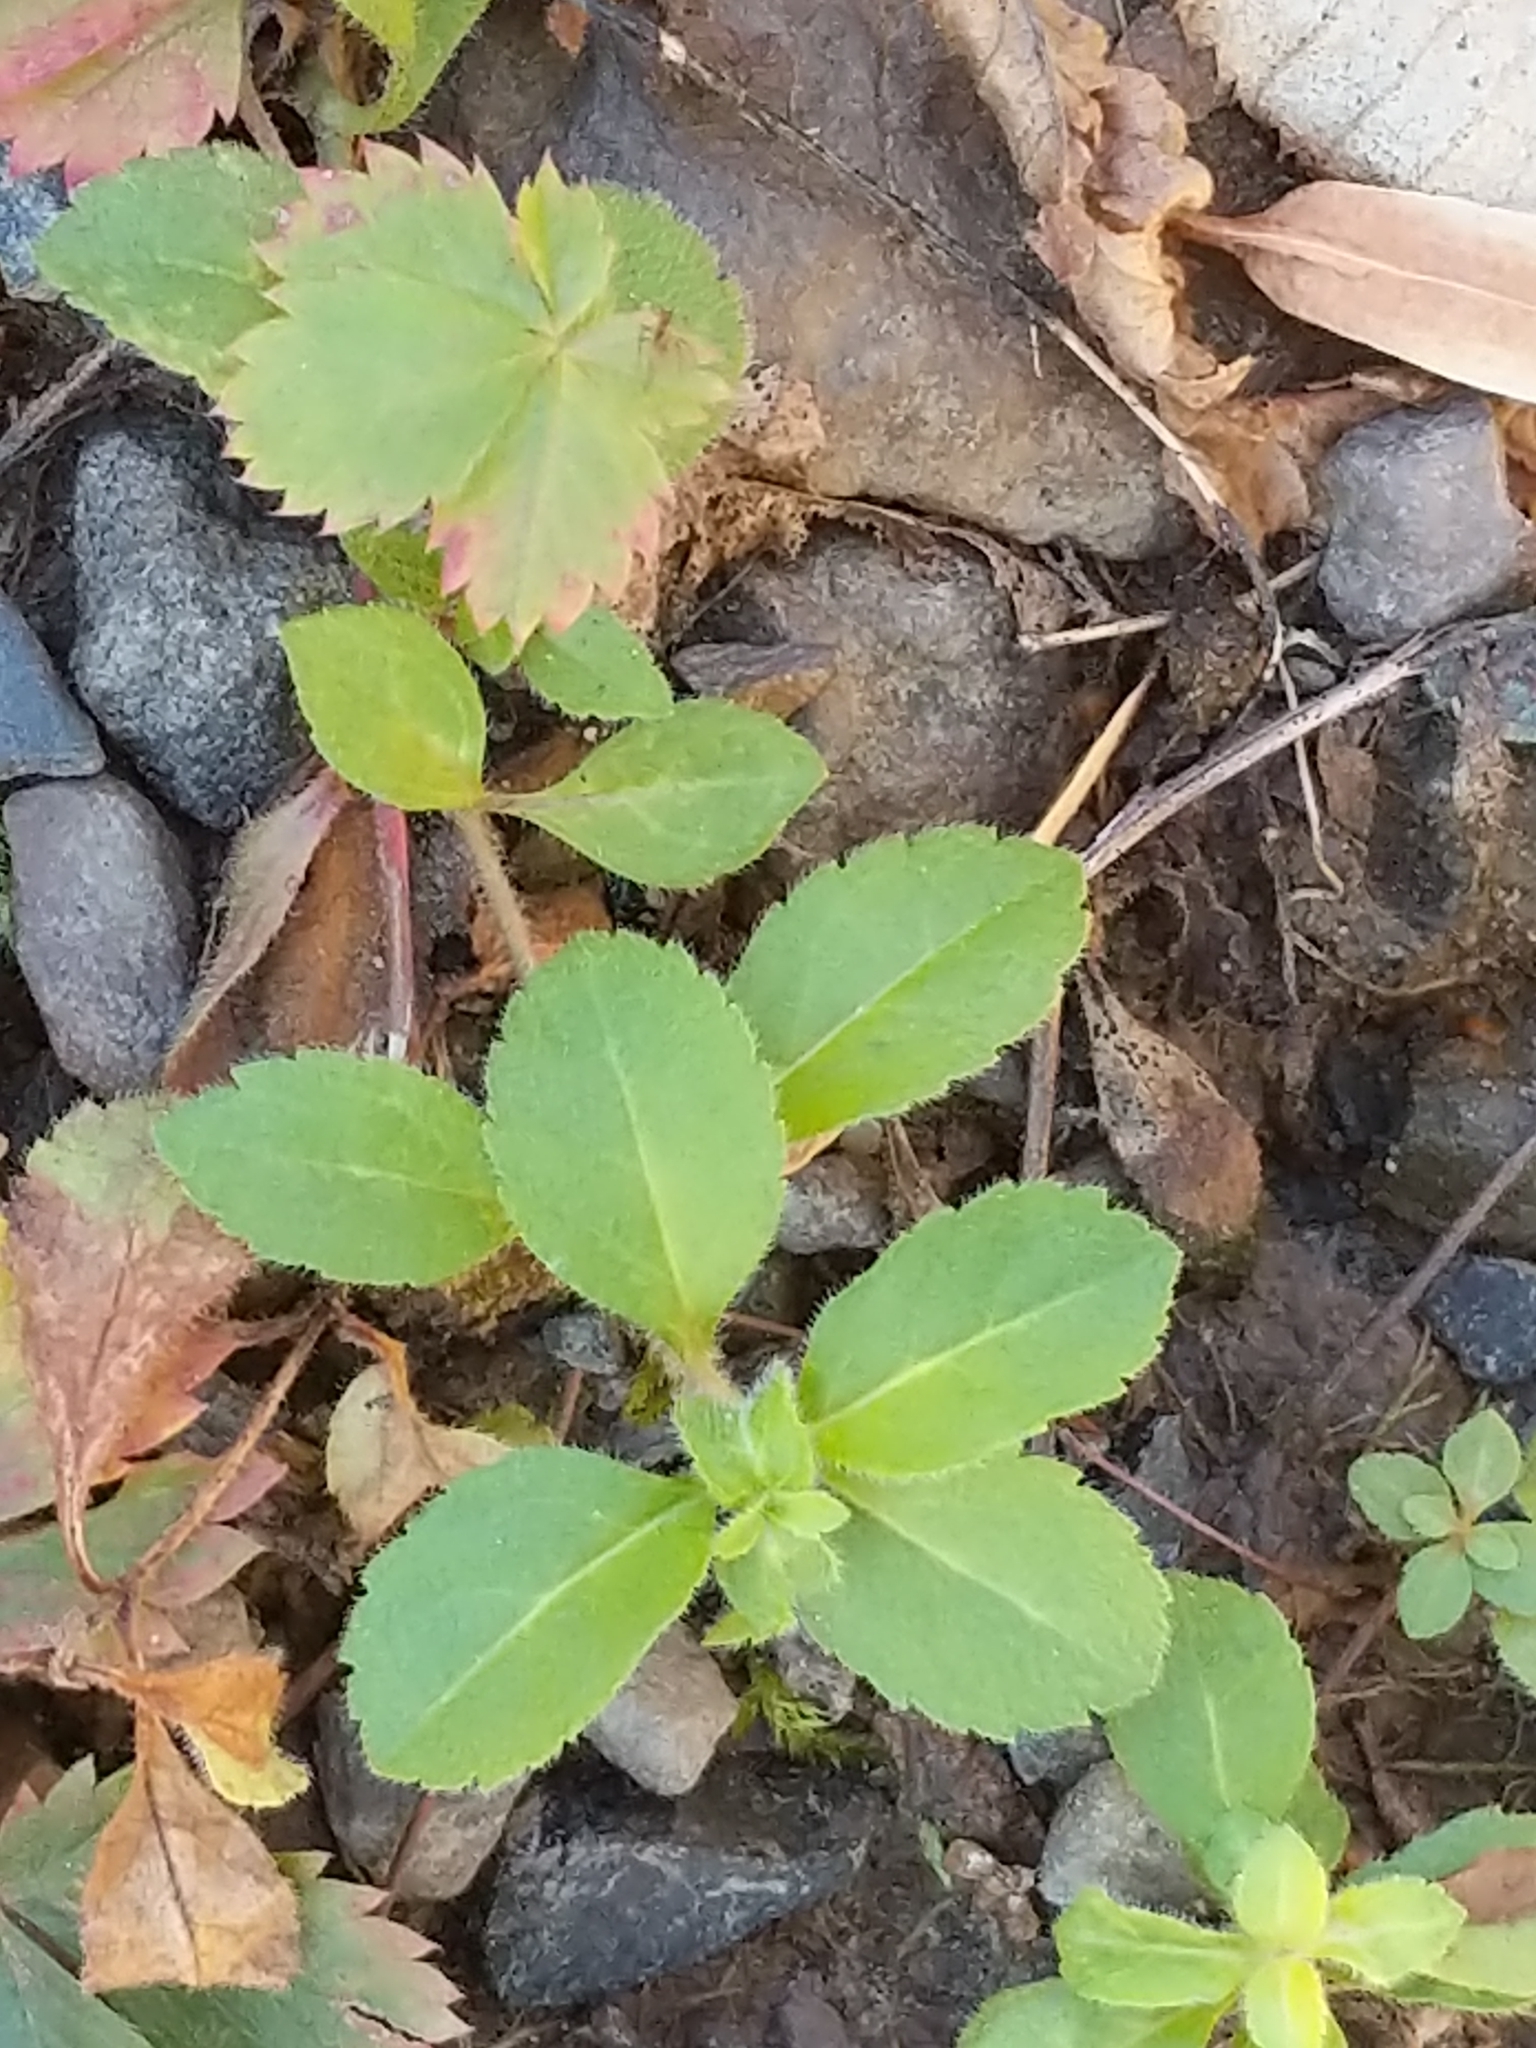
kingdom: Plantae
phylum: Tracheophyta
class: Magnoliopsida
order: Lamiales
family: Plantaginaceae
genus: Veronica
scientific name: Veronica officinalis
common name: Common speedwell
